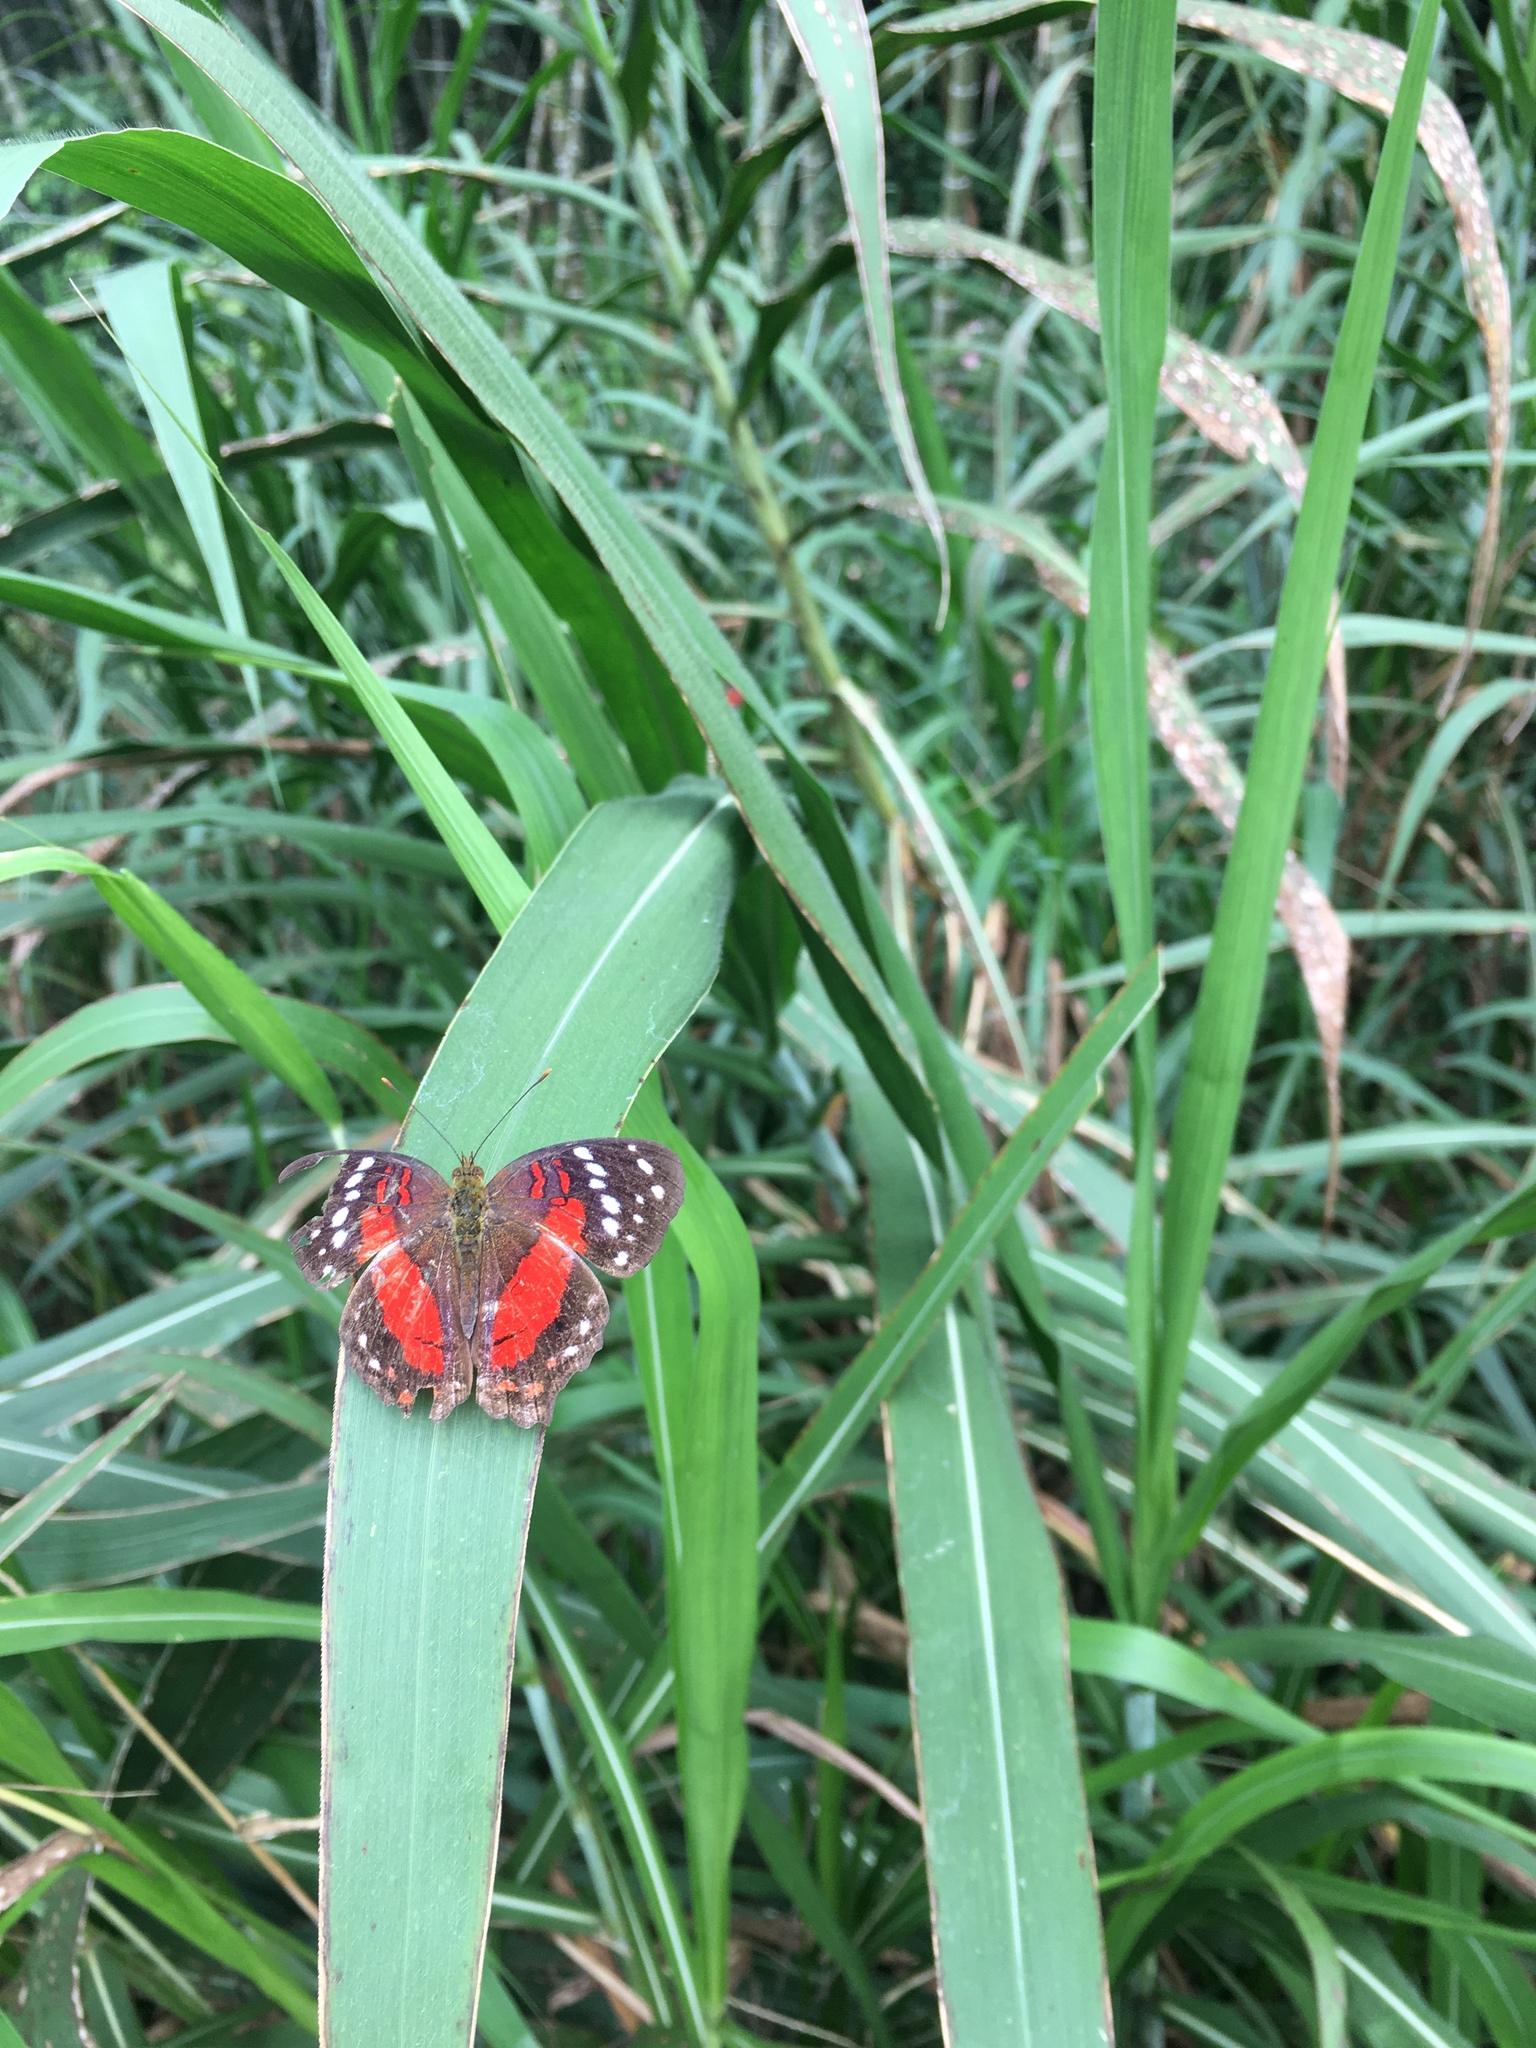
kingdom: Animalia
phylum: Arthropoda
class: Insecta
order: Lepidoptera
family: Nymphalidae
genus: Anartia
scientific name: Anartia amathea
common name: Red peacock
